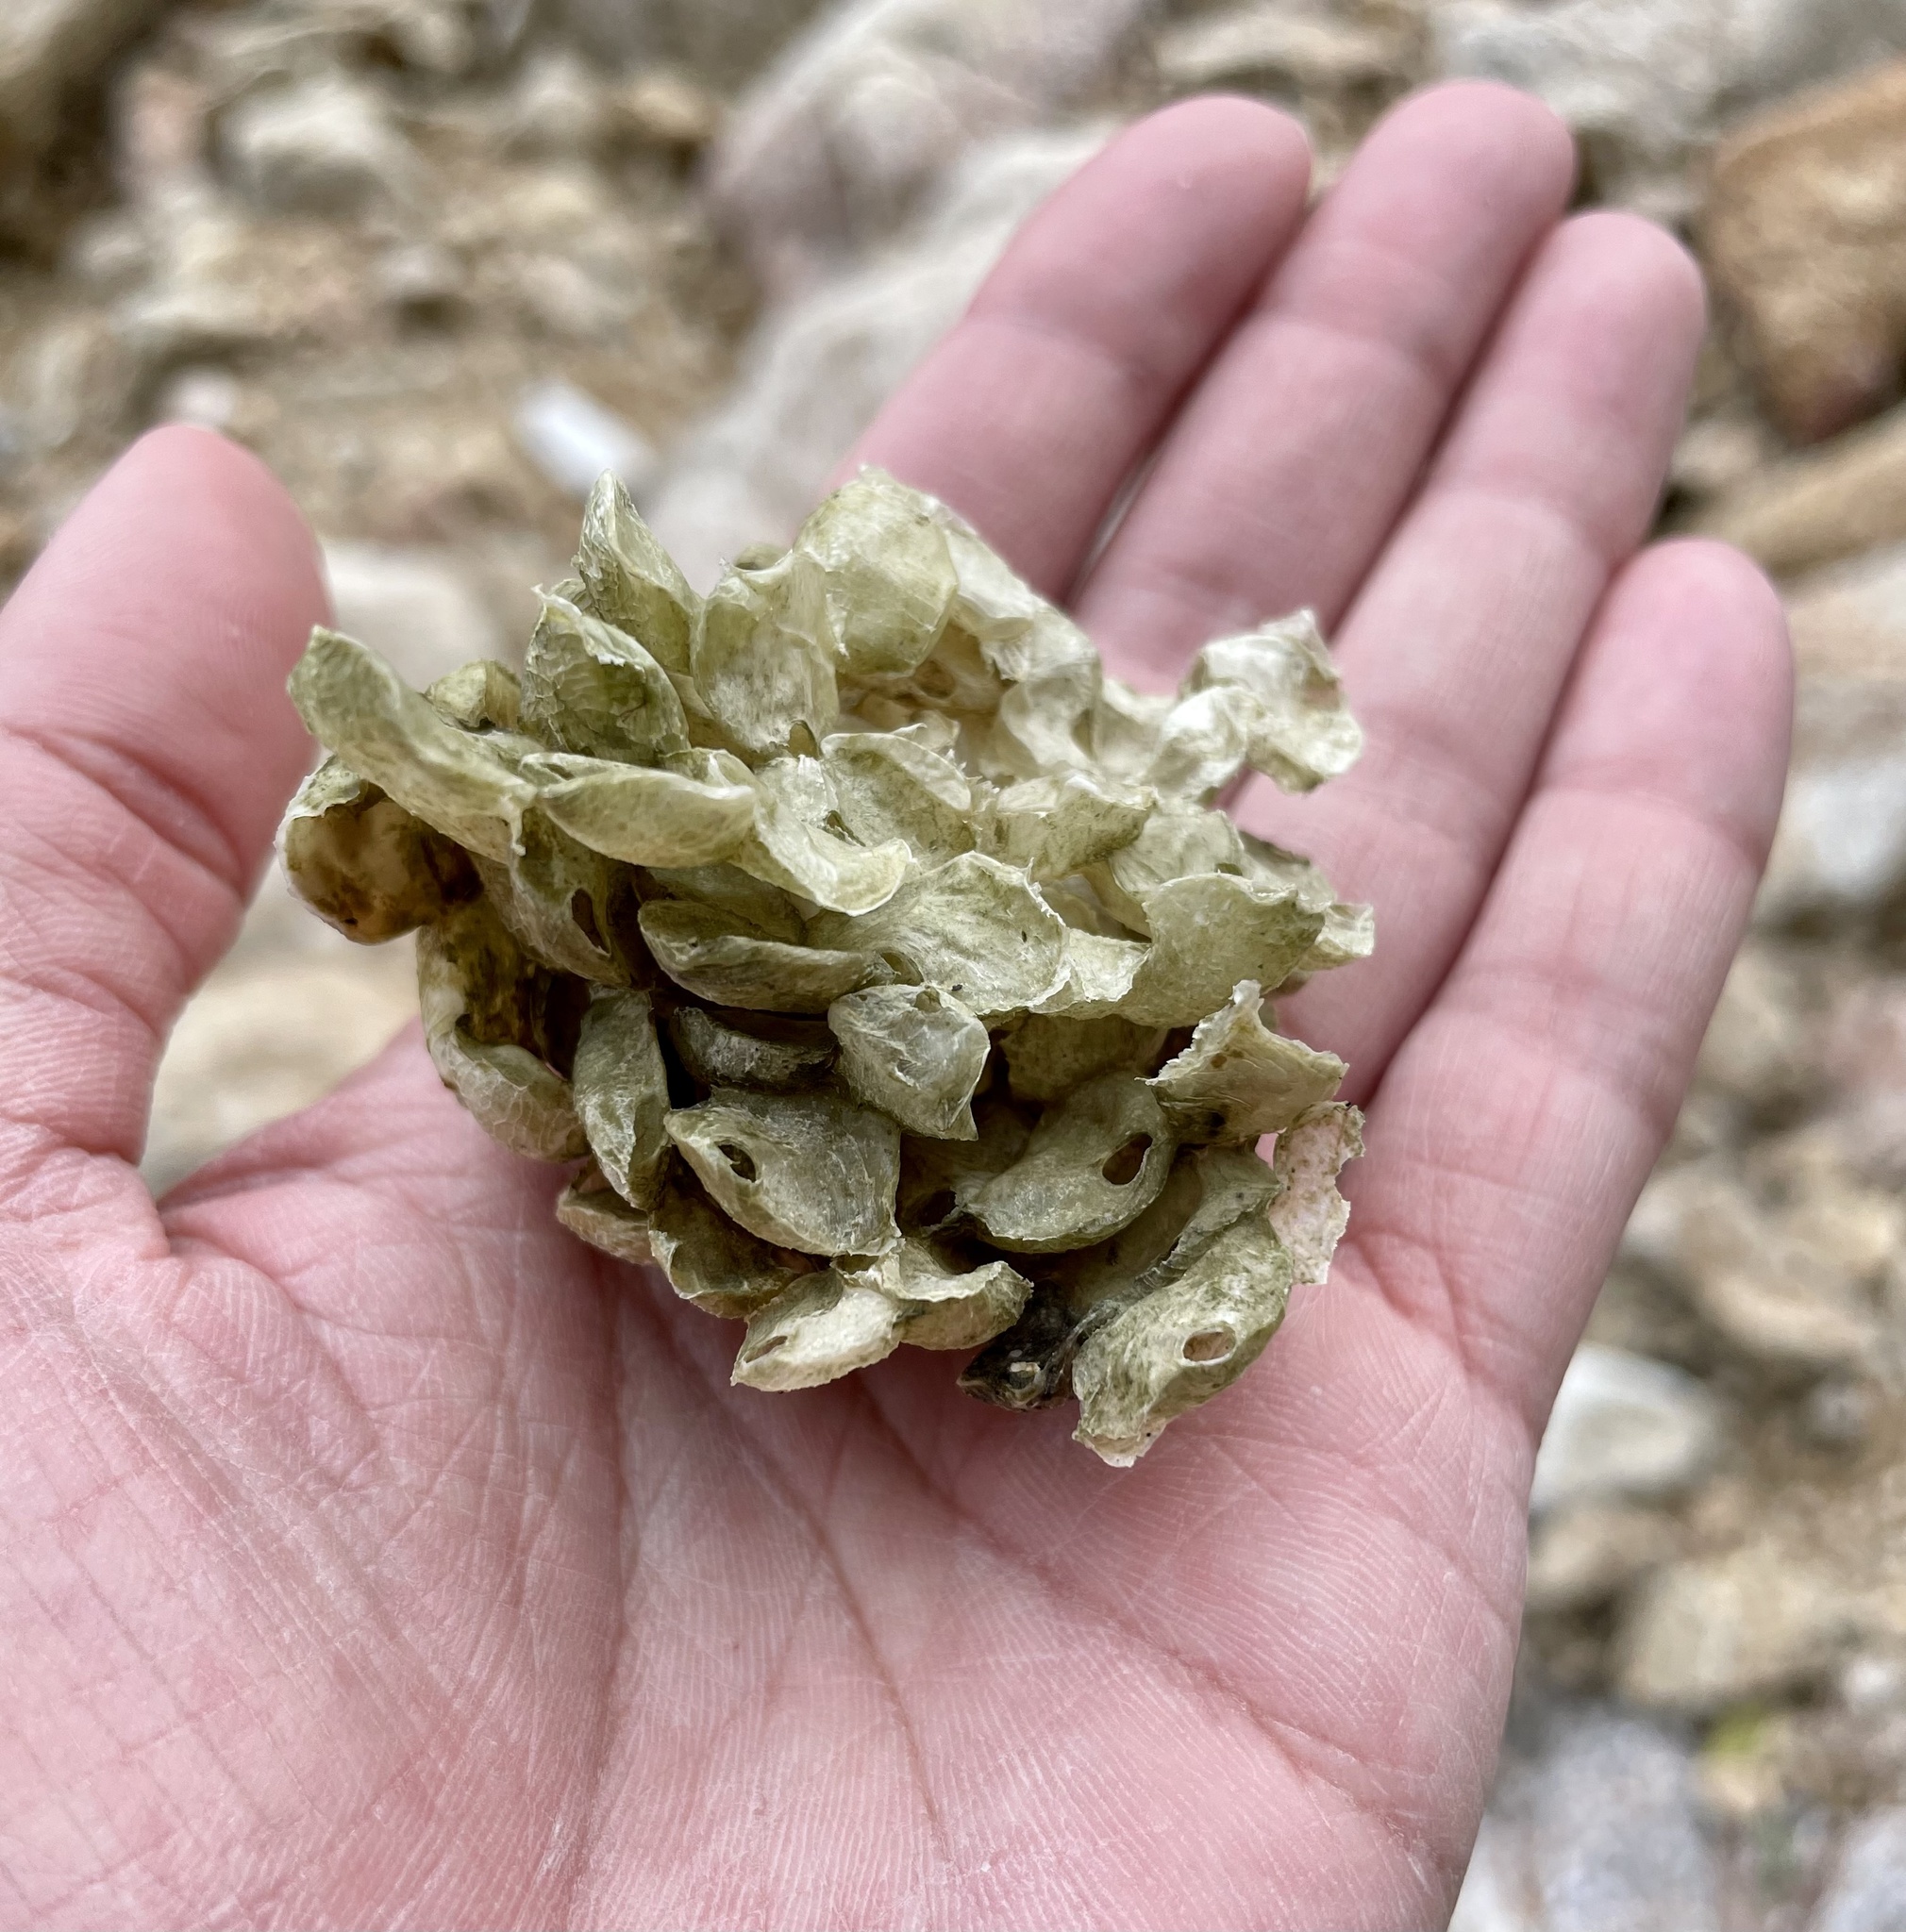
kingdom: Animalia
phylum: Mollusca
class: Gastropoda
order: Neogastropoda
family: Melongenidae
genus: Hemifusus
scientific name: Hemifusus tuba
